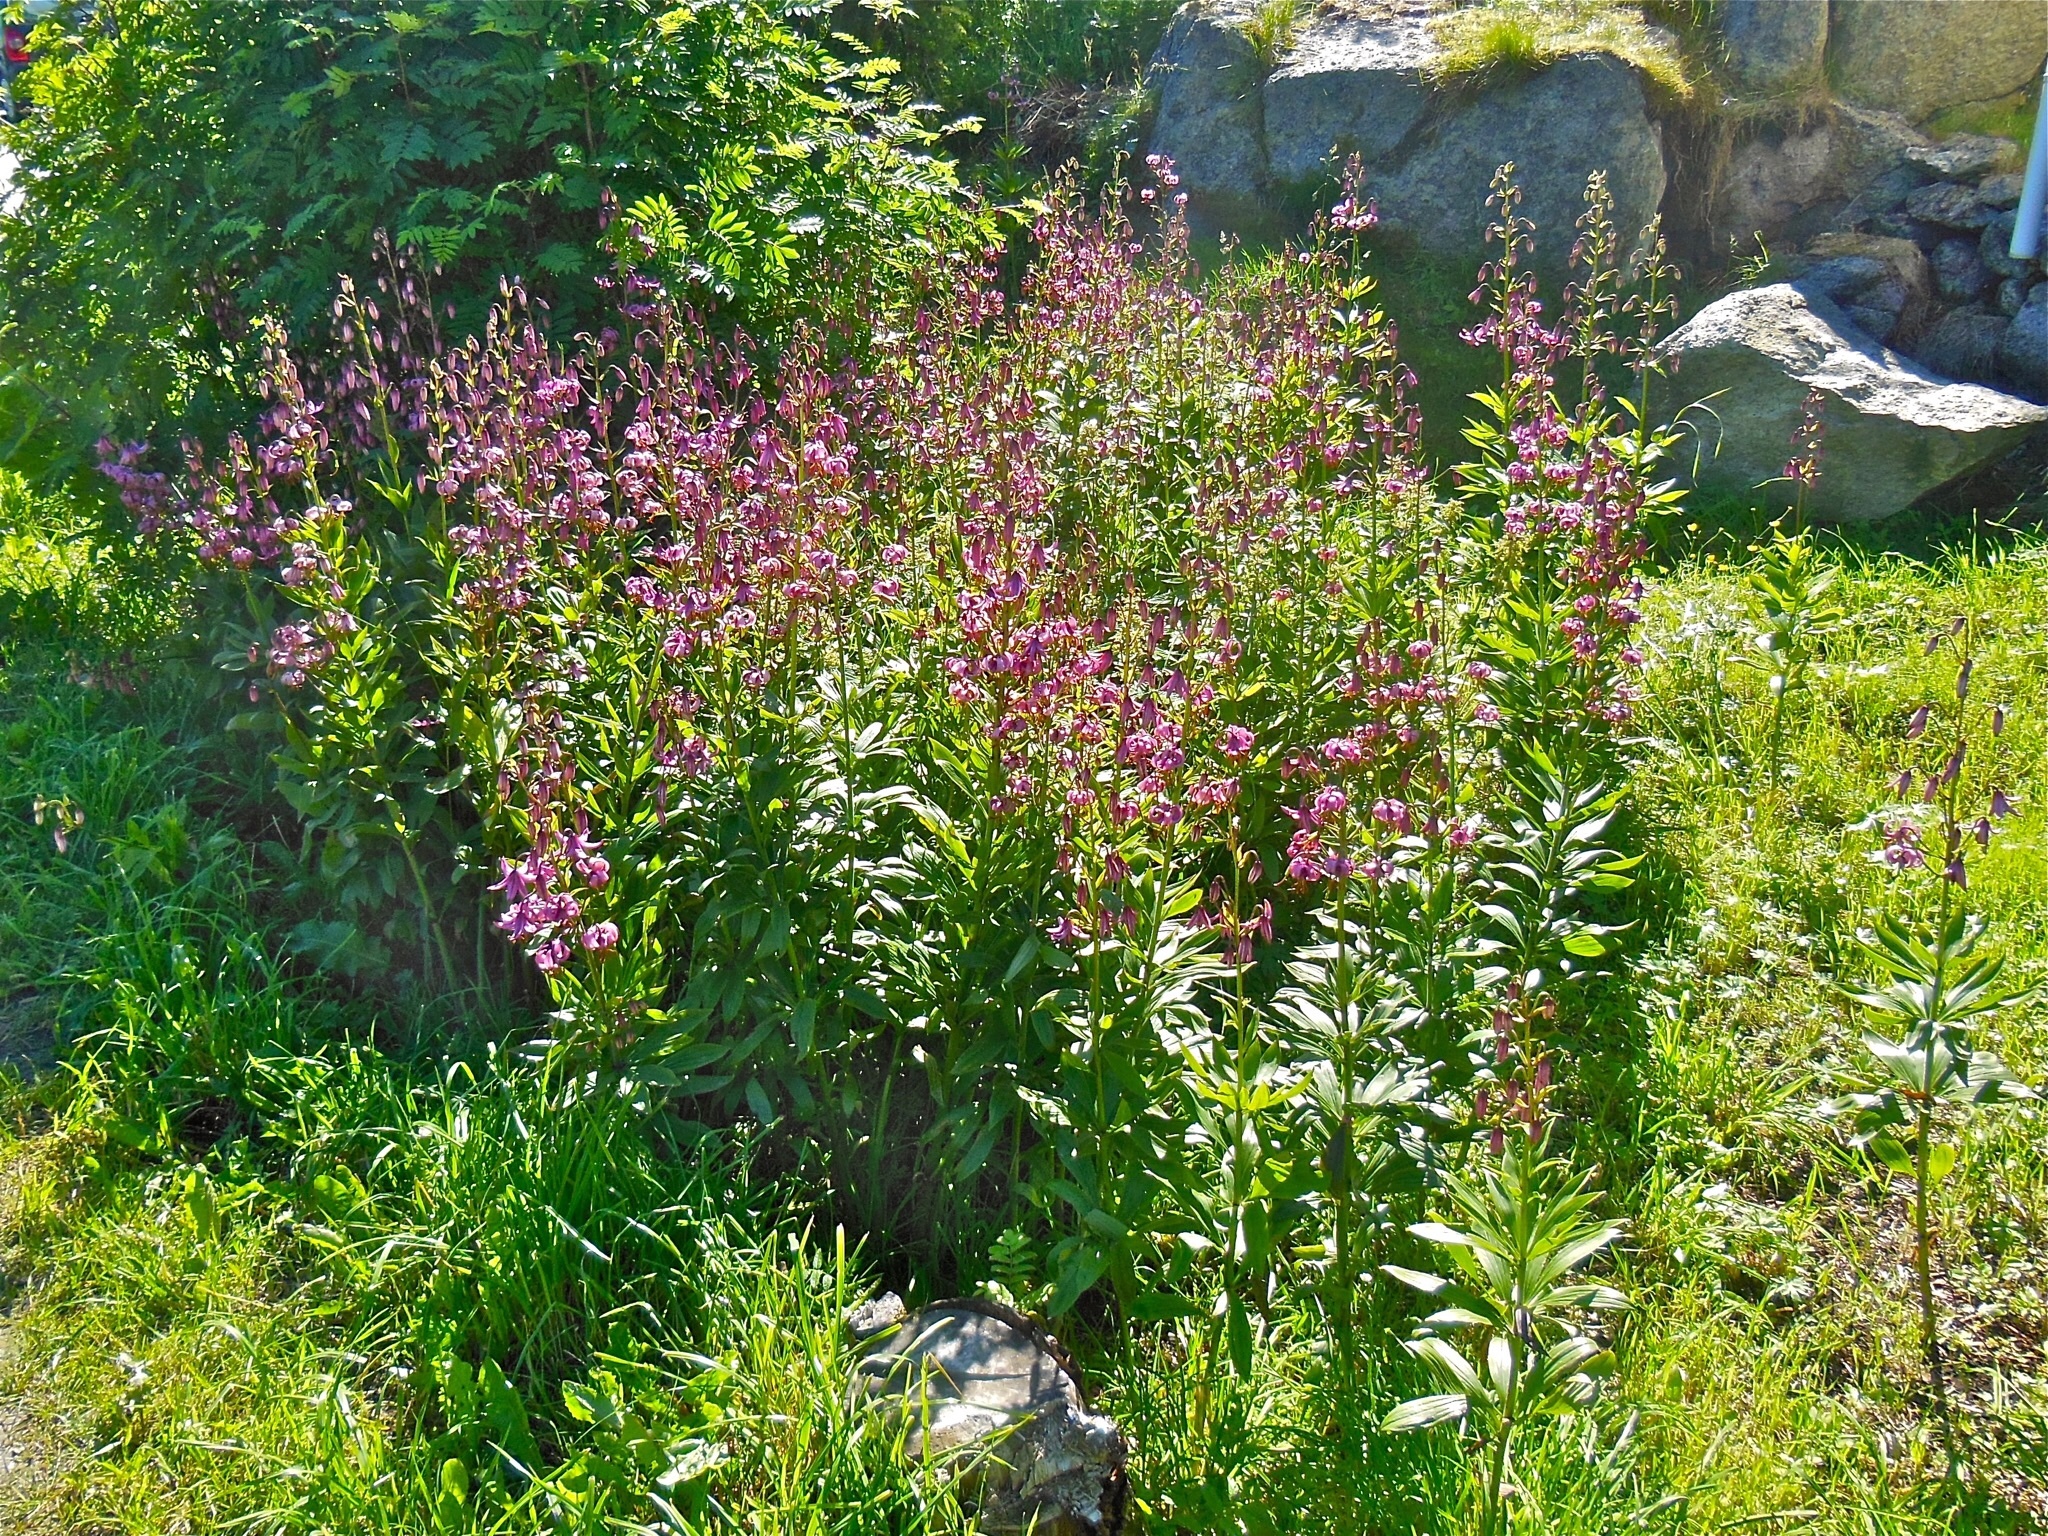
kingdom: Plantae
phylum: Tracheophyta
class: Liliopsida
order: Liliales
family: Liliaceae
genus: Lilium
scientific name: Lilium martagon
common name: Martagon lily
